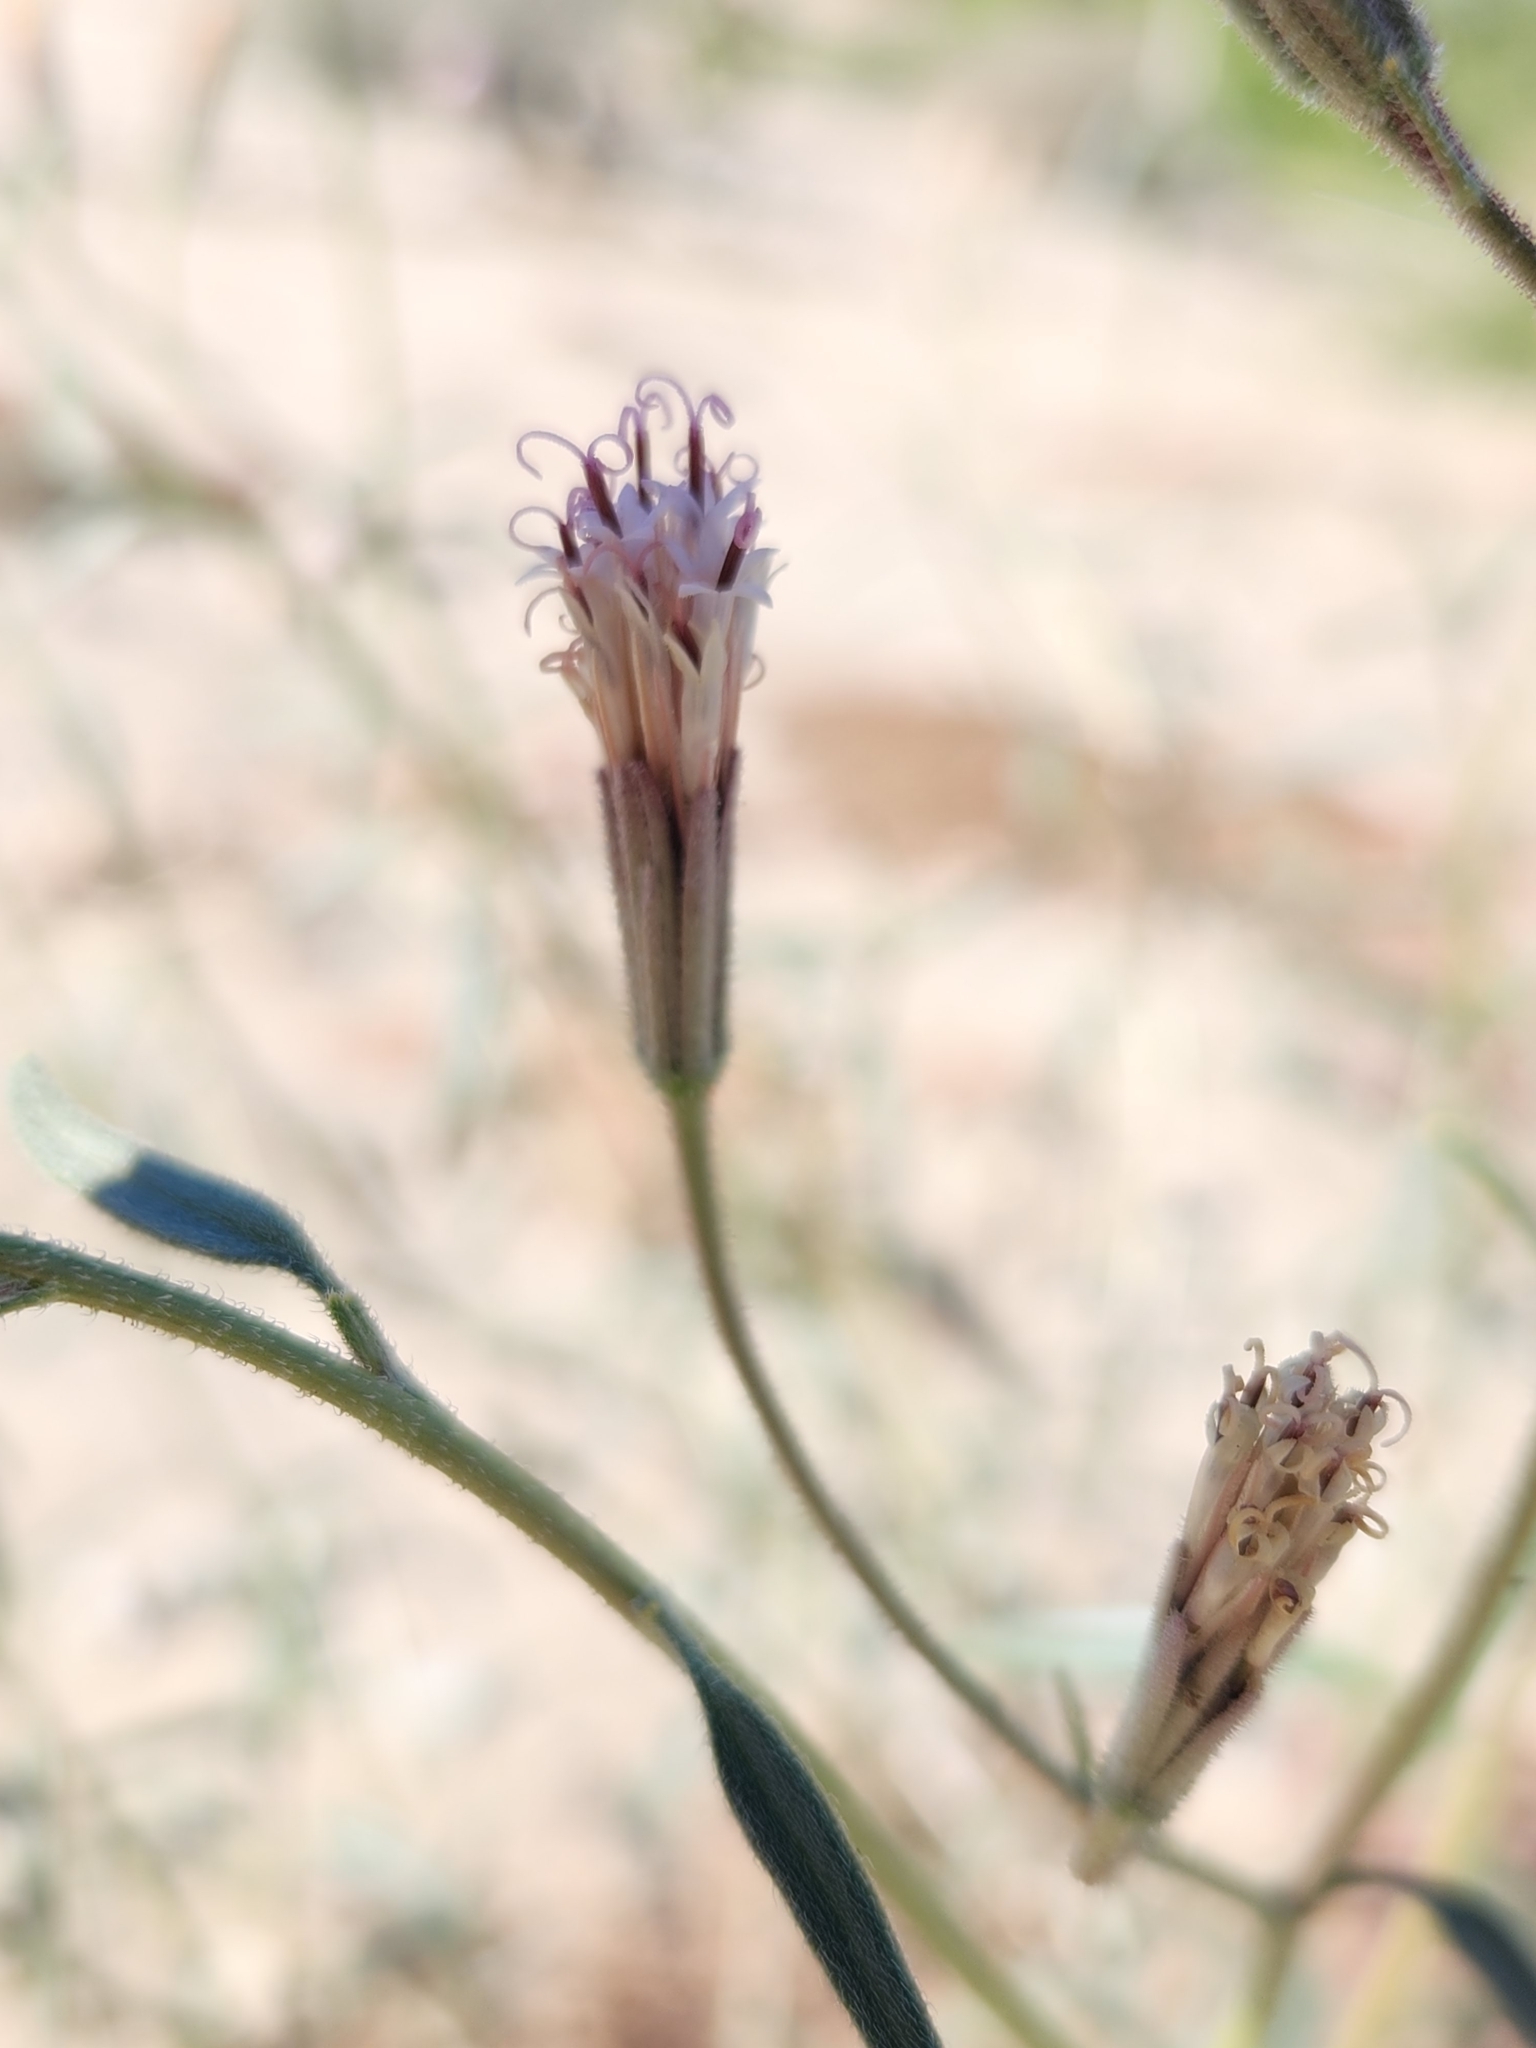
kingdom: Plantae
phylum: Tracheophyta
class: Magnoliopsida
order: Asterales
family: Asteraceae
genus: Palafoxia
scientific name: Palafoxia arida
